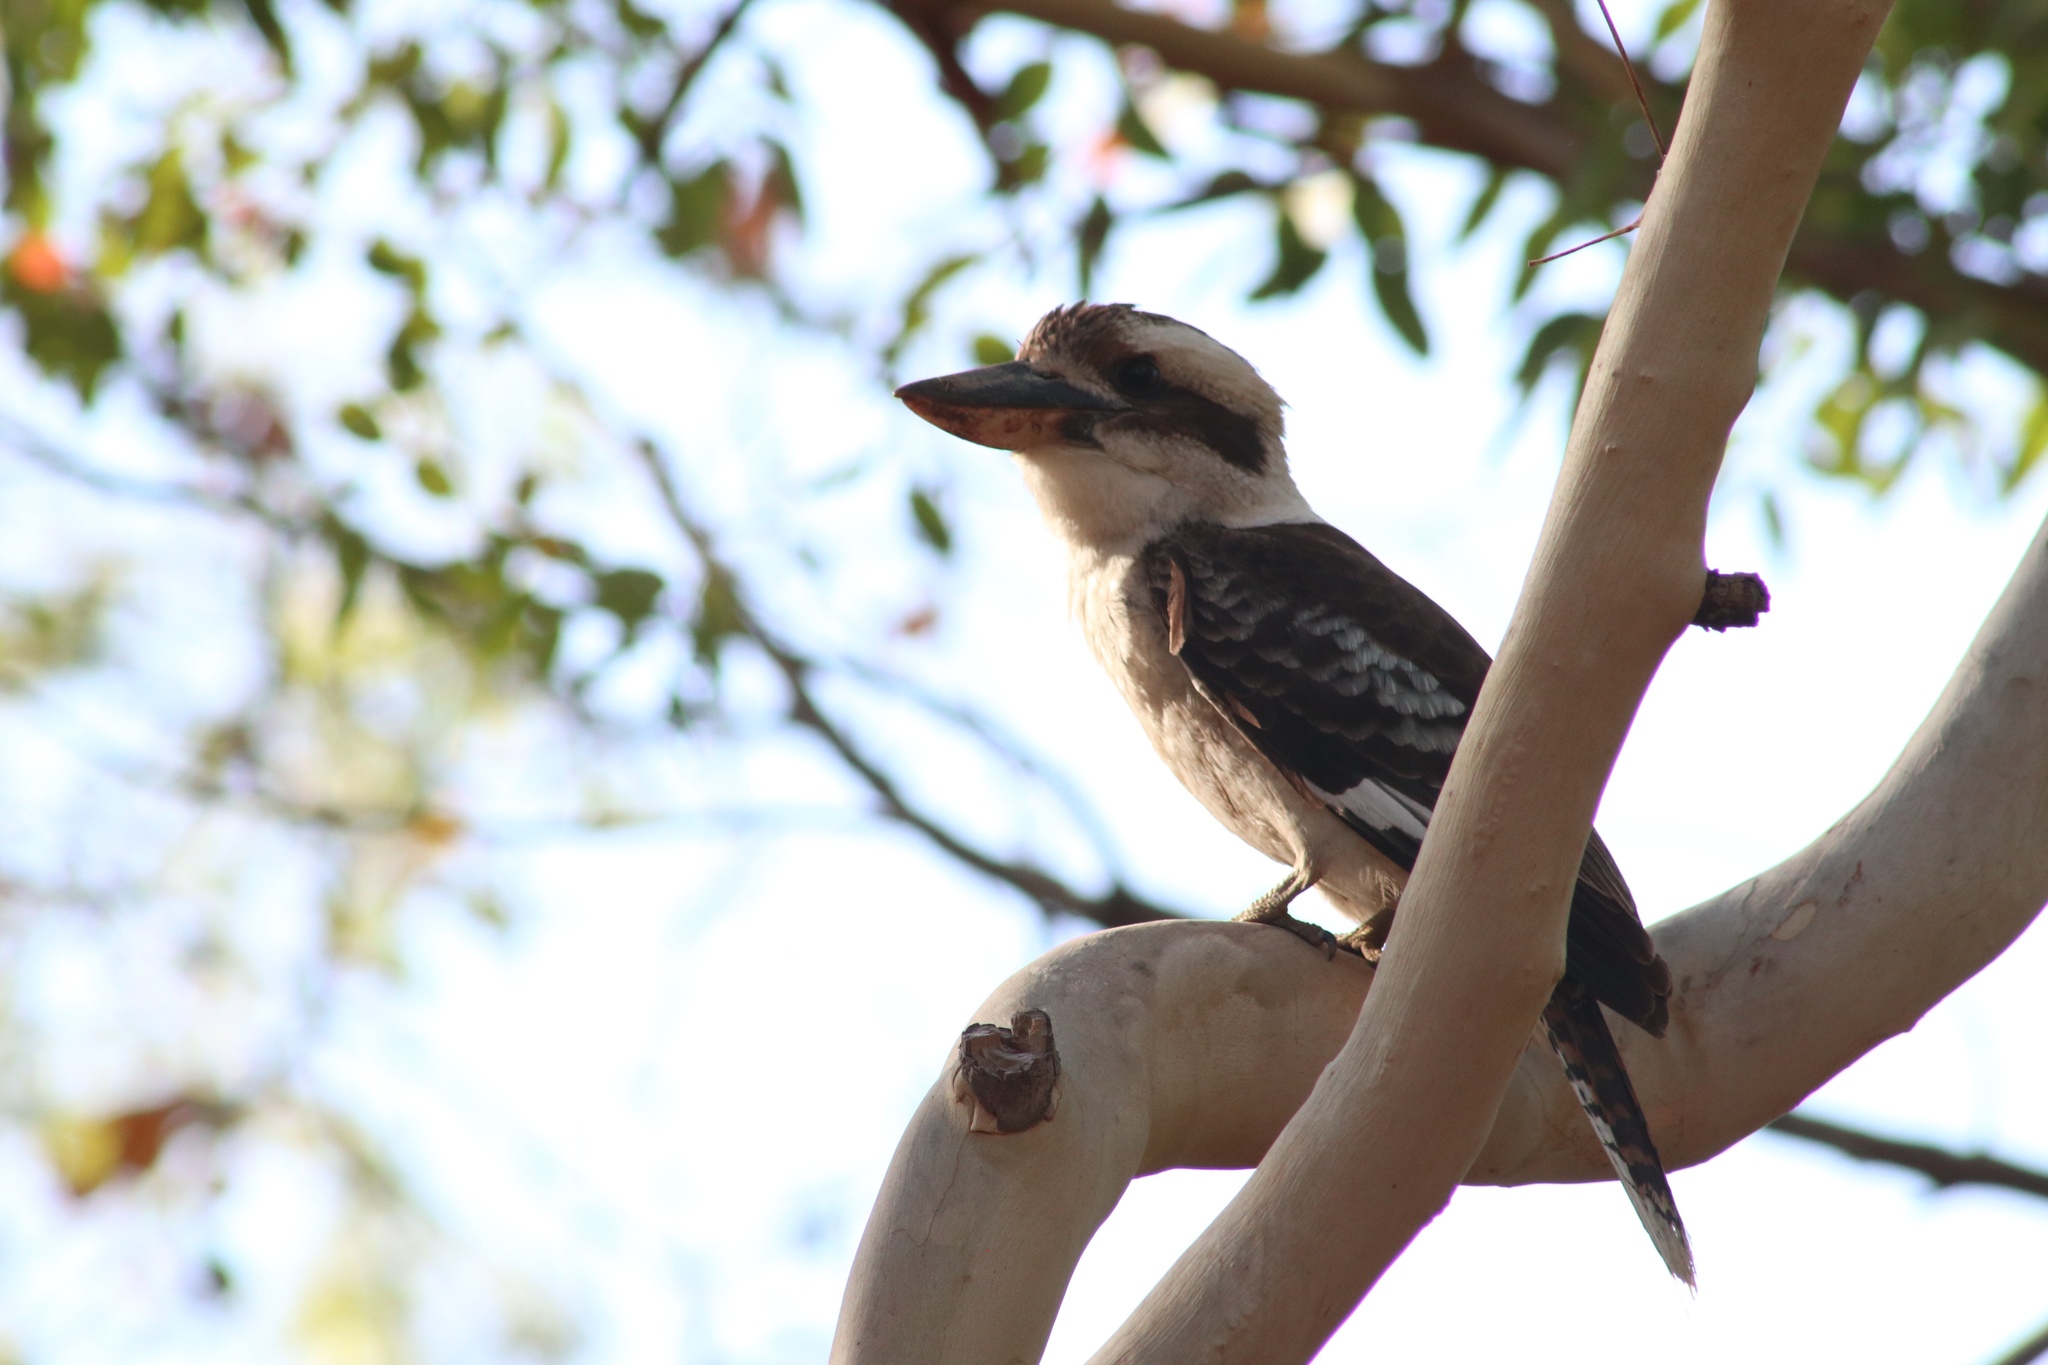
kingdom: Animalia
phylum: Chordata
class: Aves
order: Coraciiformes
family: Alcedinidae
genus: Dacelo
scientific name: Dacelo novaeguineae
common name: Laughing kookaburra
